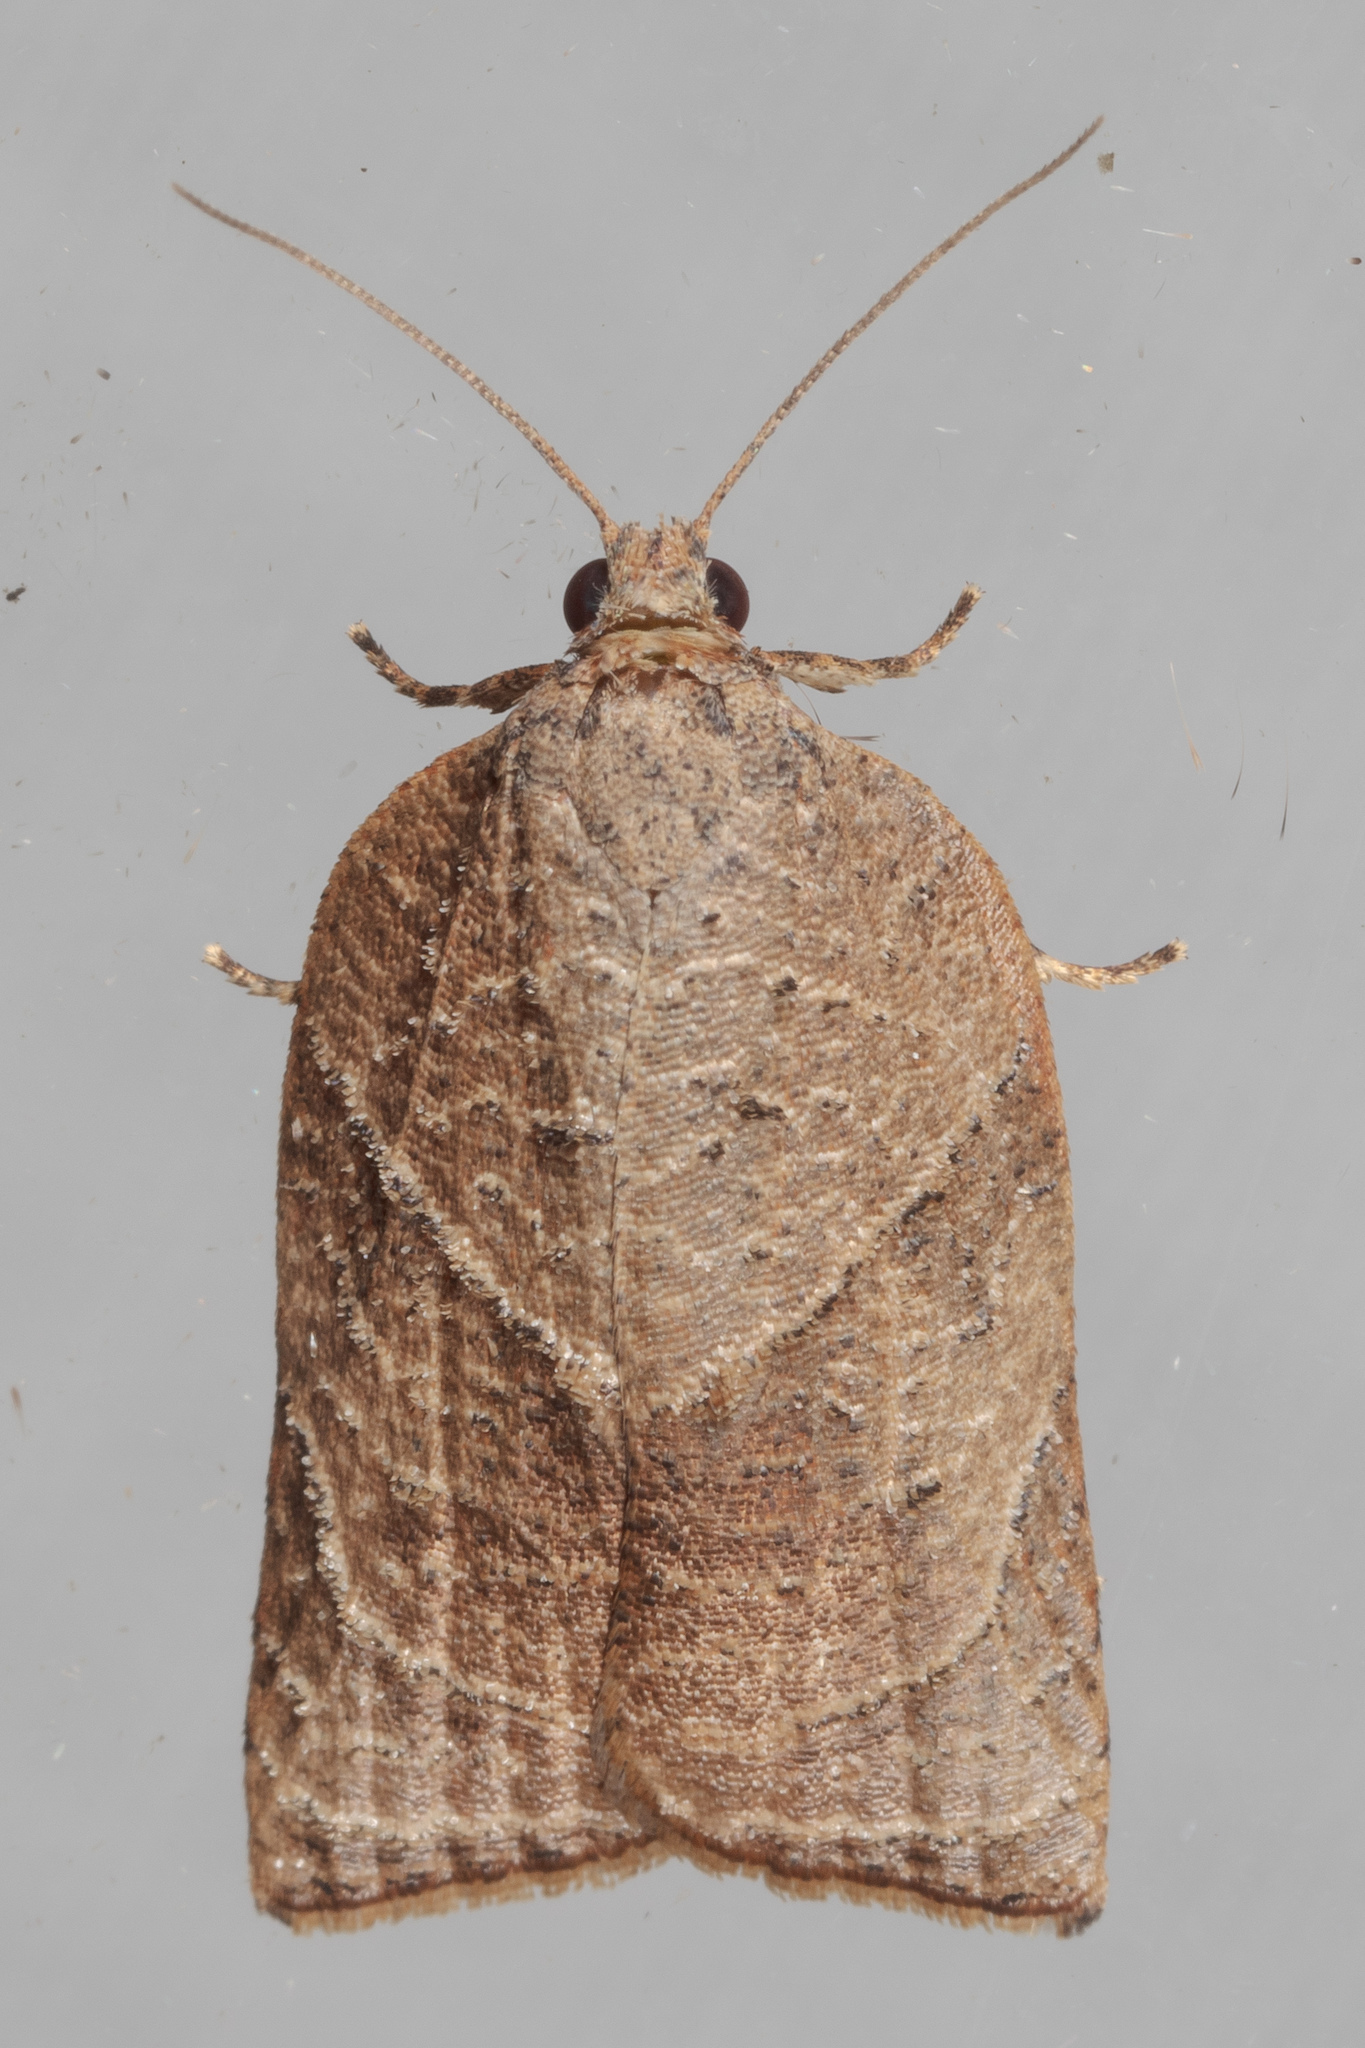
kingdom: Animalia
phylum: Arthropoda
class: Insecta
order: Lepidoptera
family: Tortricidae
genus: Platynota
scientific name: Platynota rostrana
